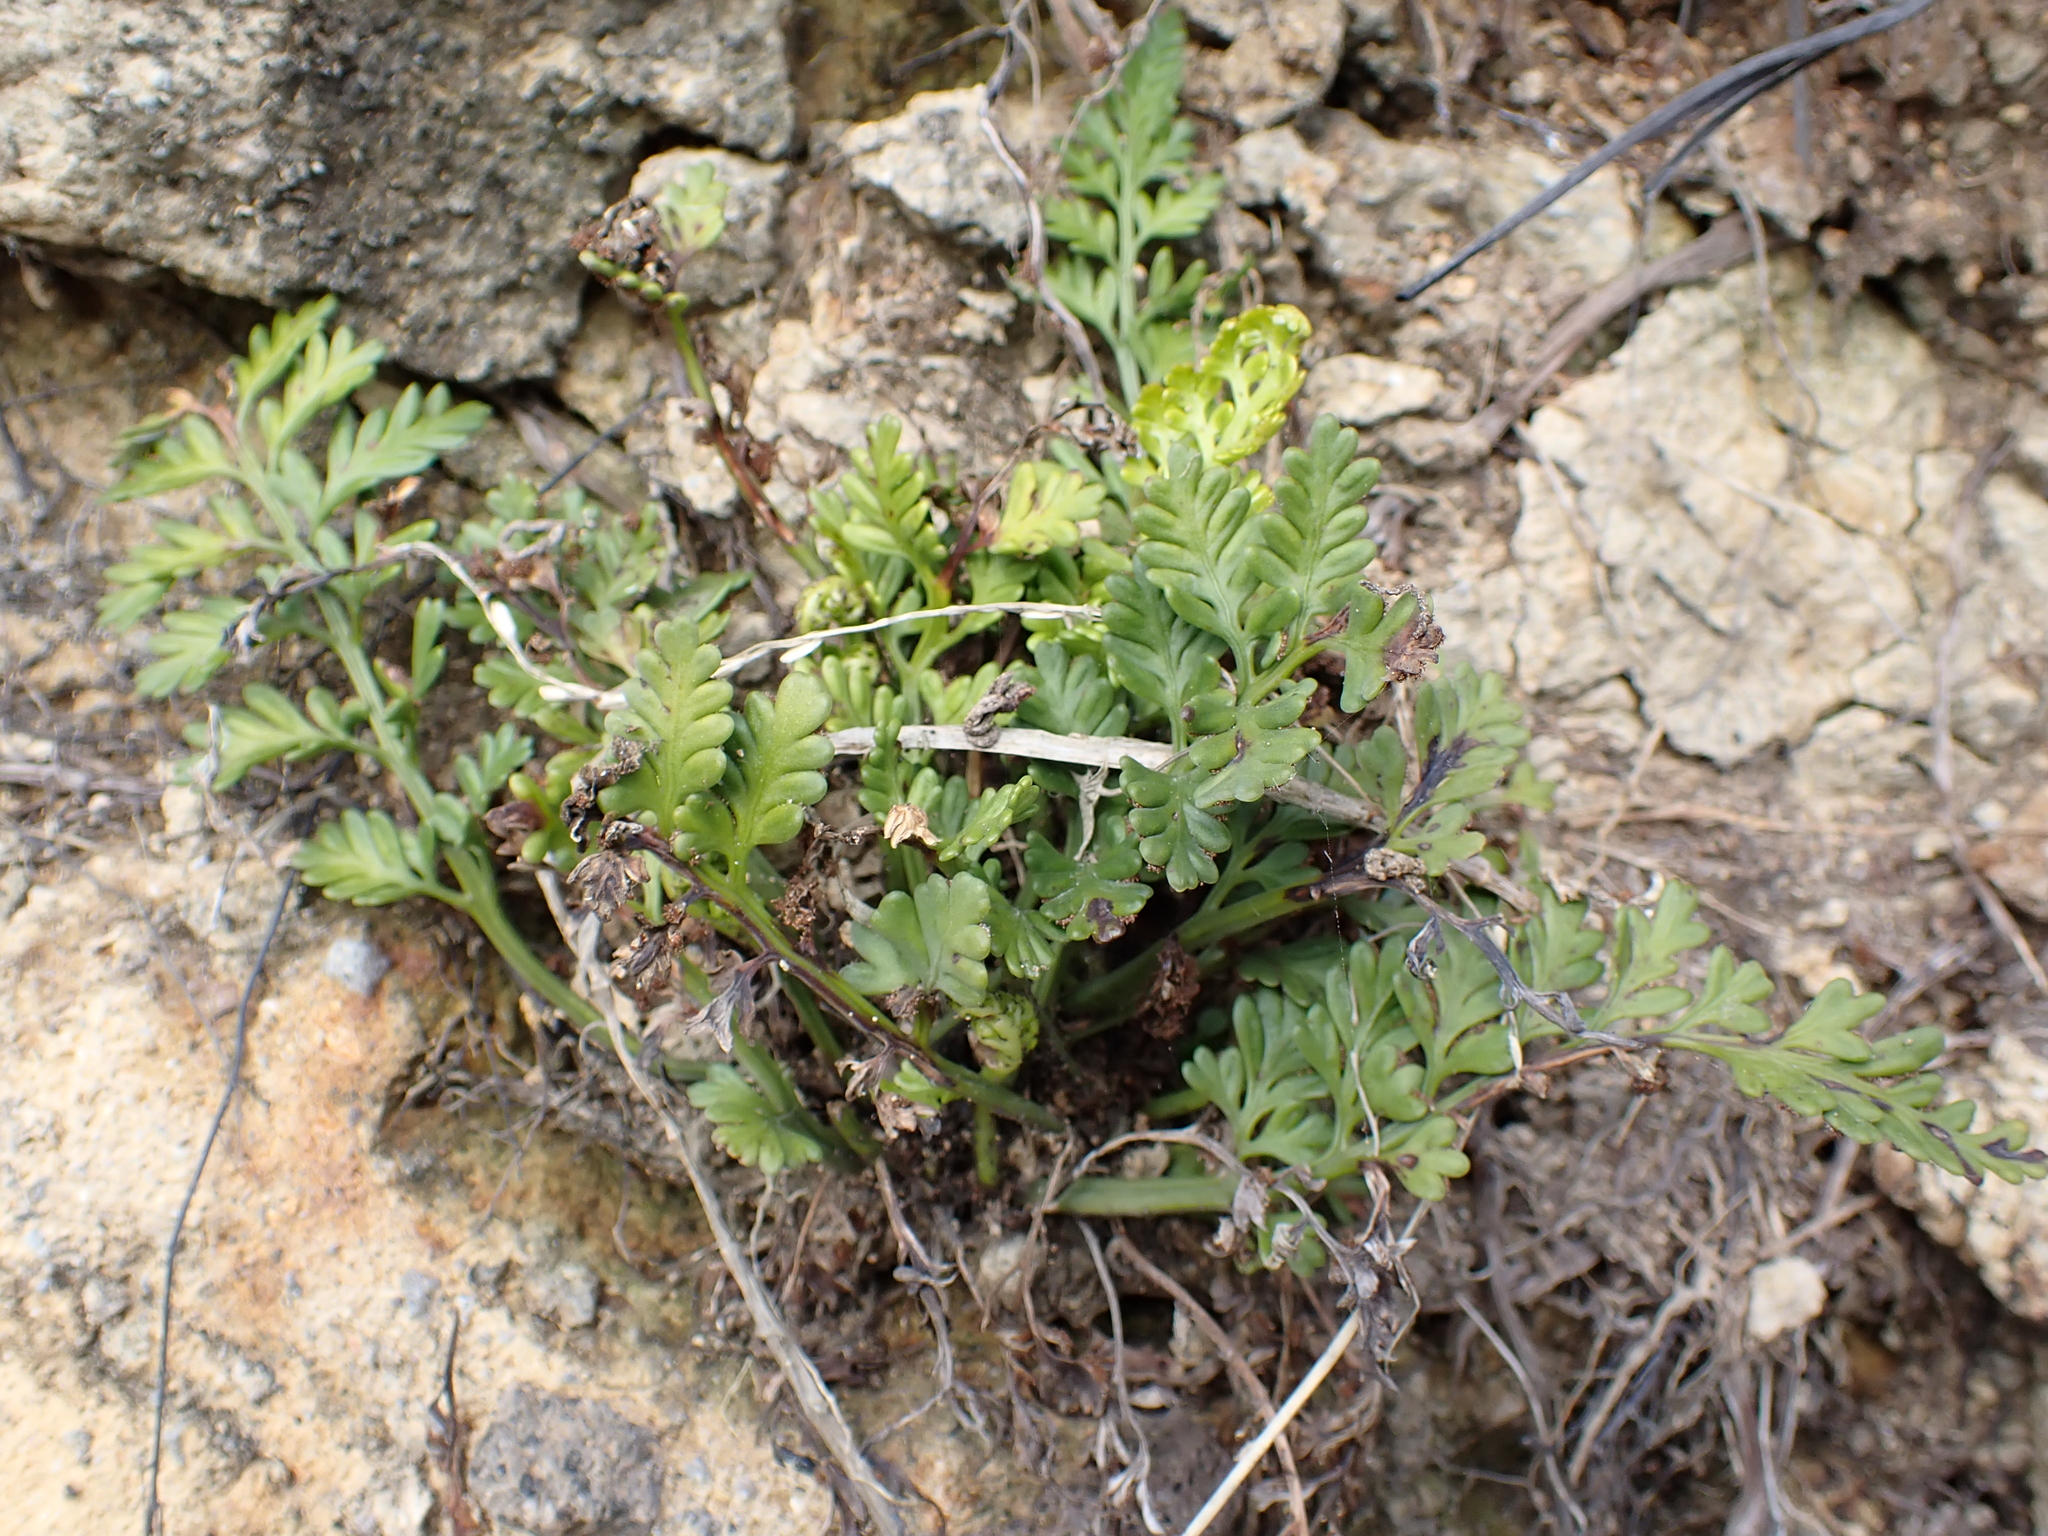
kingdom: Plantae
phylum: Tracheophyta
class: Polypodiopsida
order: Polypodiales
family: Aspleniaceae
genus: Asplenium
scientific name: Asplenium appendiculatum
